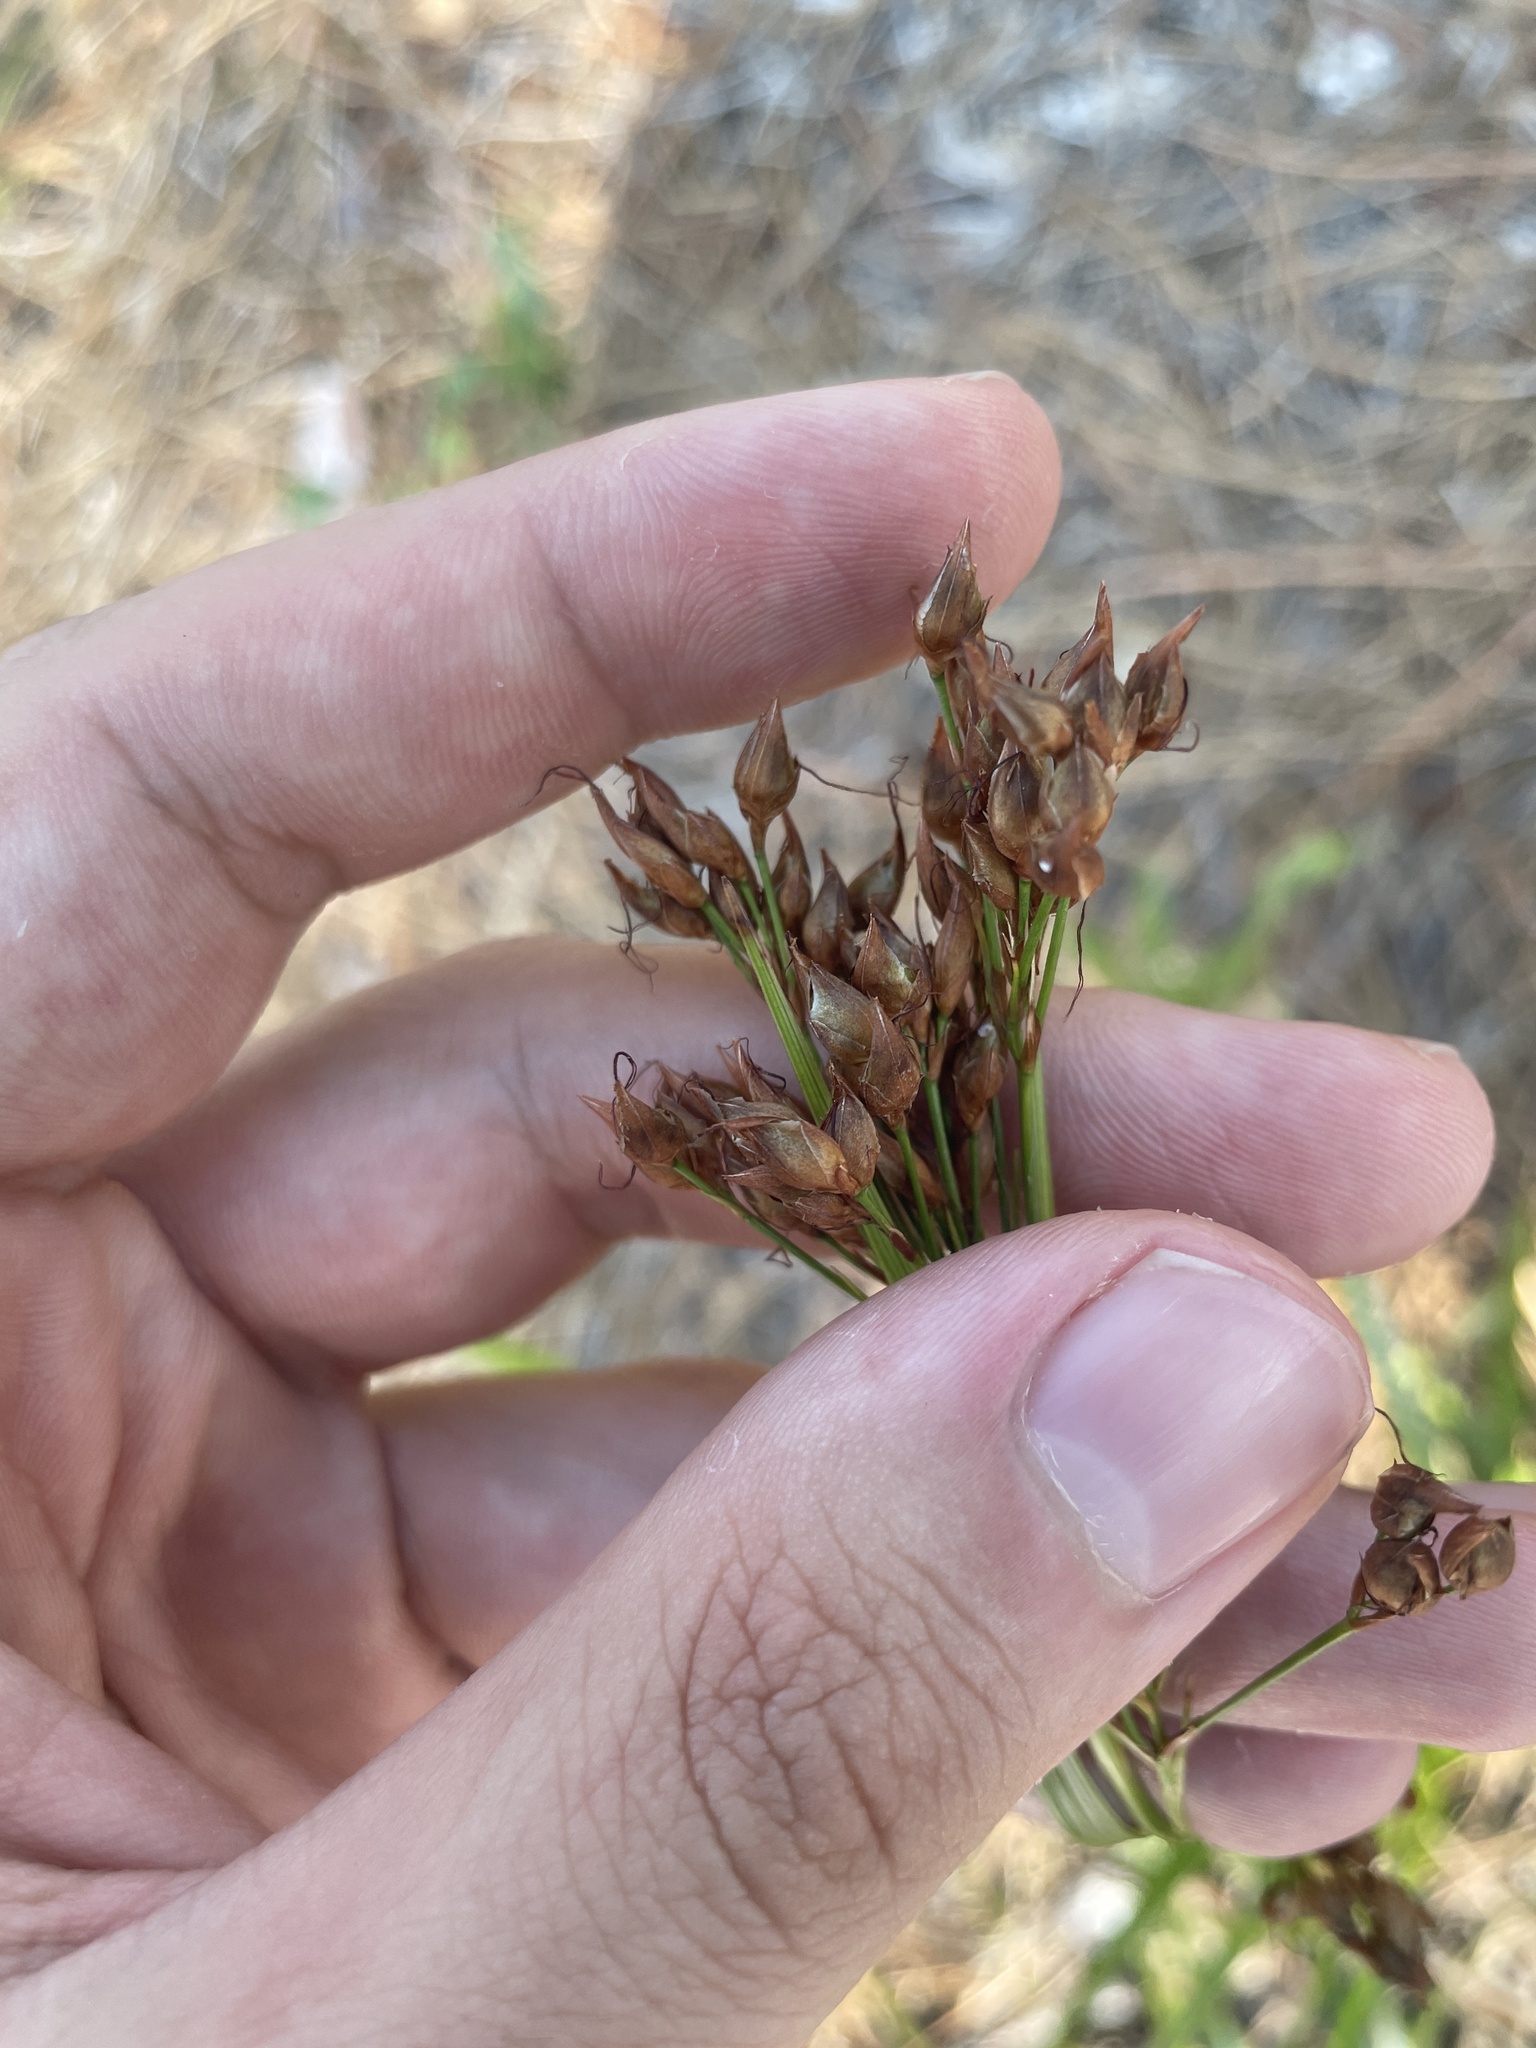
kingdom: Plantae
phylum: Tracheophyta
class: Liliopsida
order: Poales
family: Cyperaceae
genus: Rhynchospora
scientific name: Rhynchospora megalocarpa
